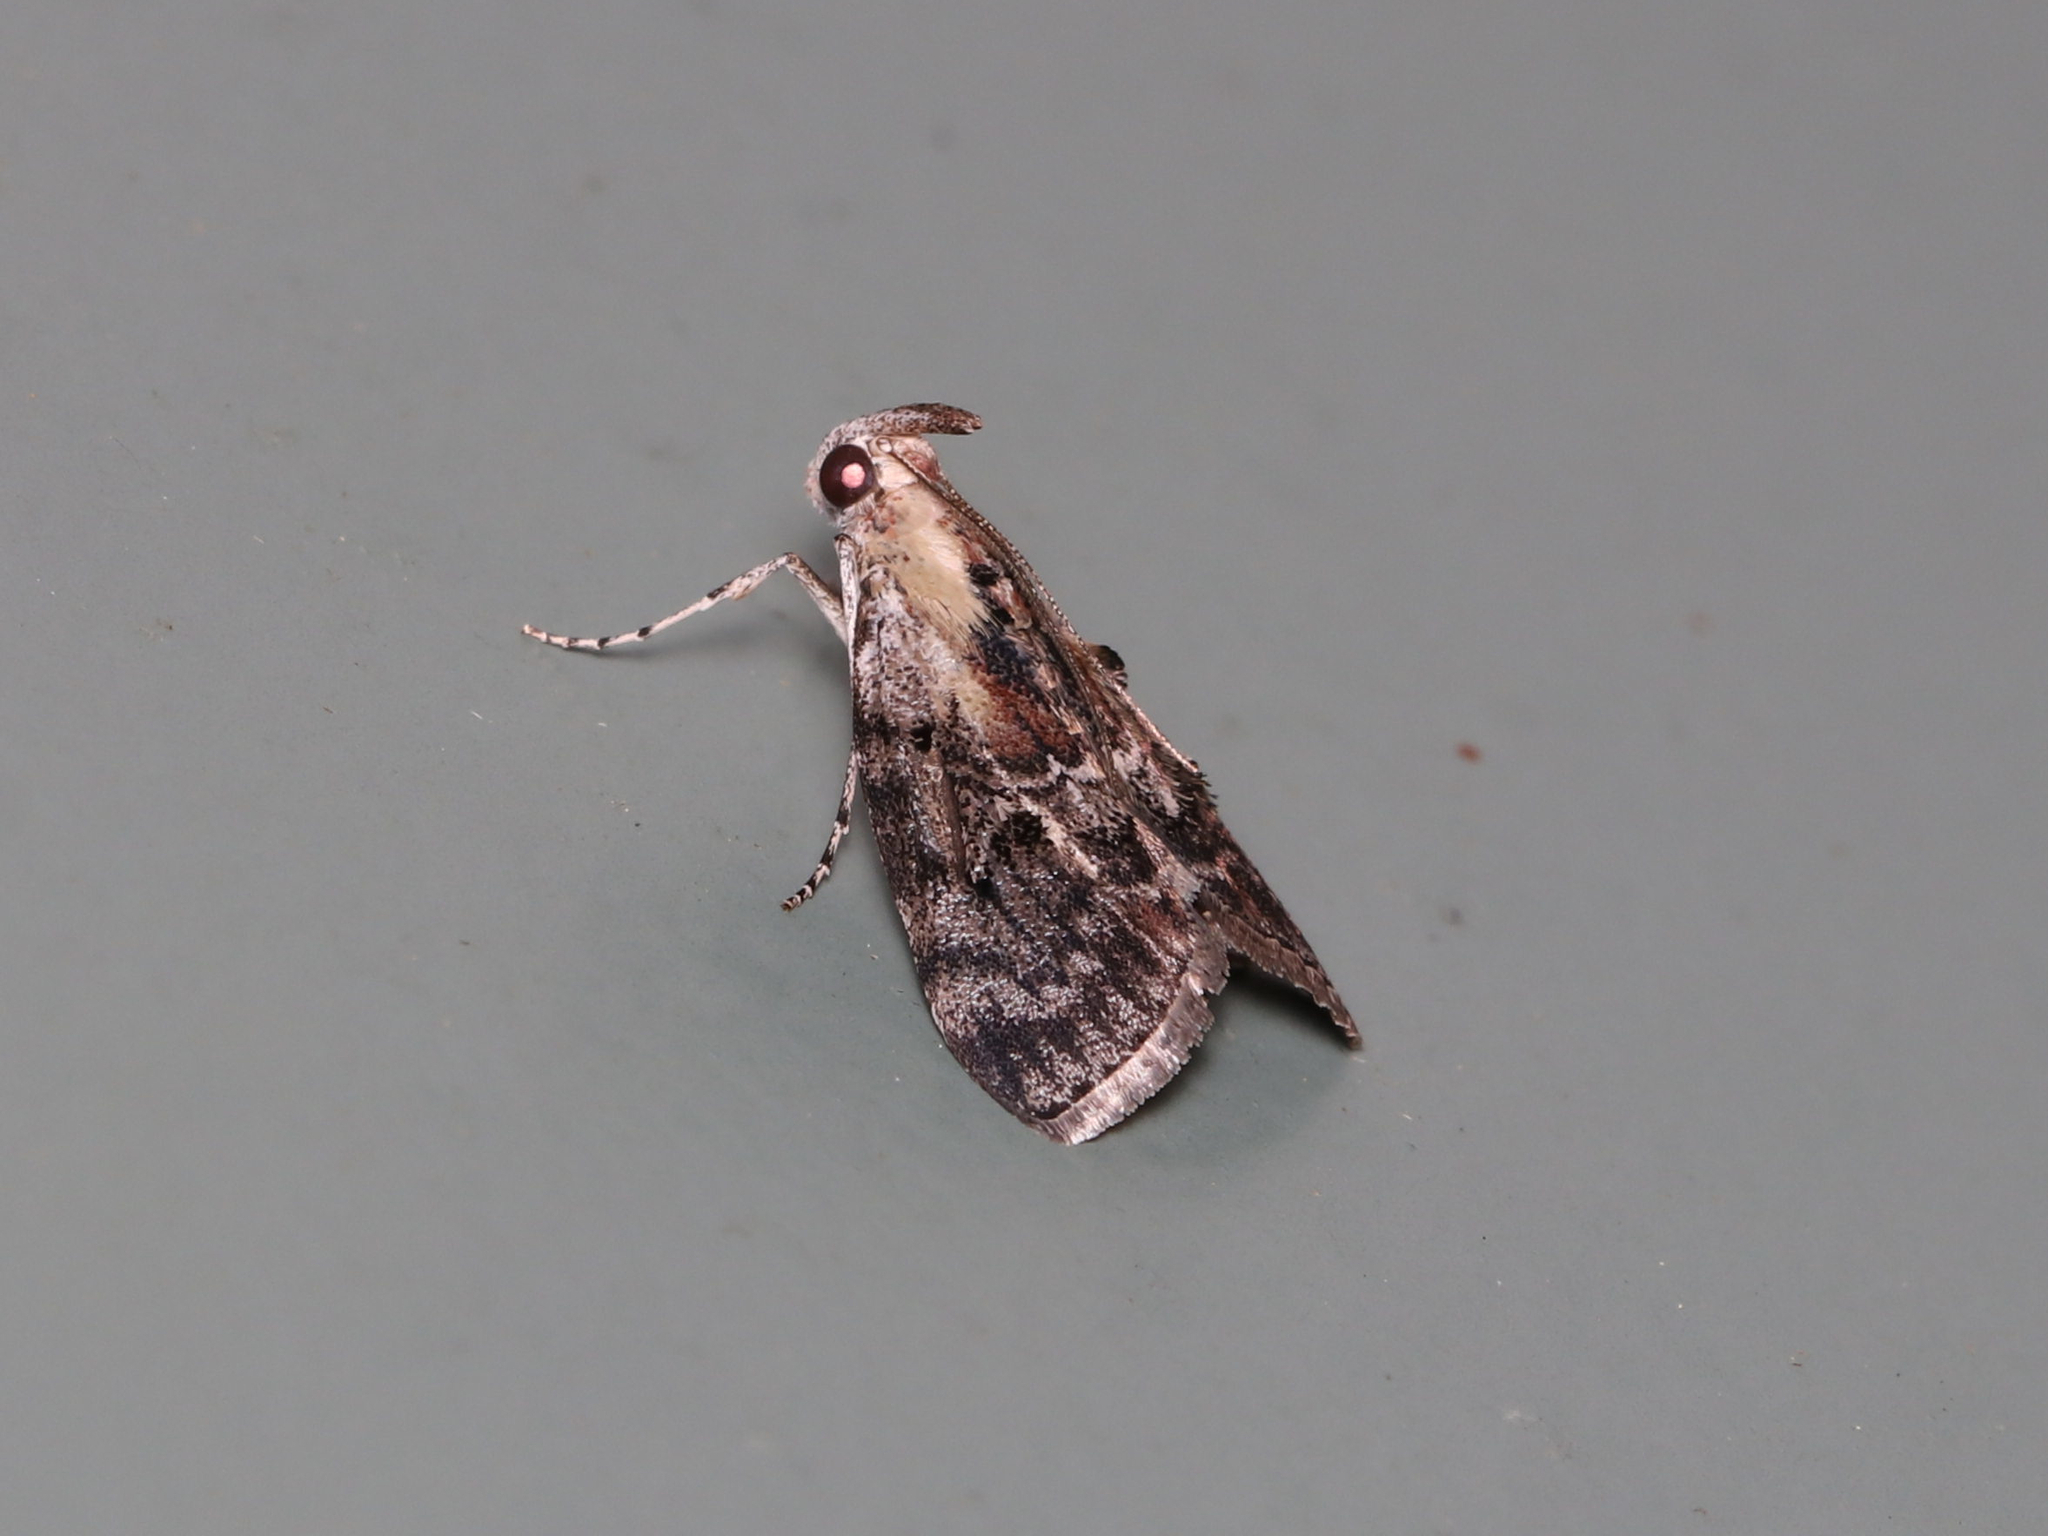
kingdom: Animalia
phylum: Arthropoda
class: Insecta
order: Lepidoptera
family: Pyralidae
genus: Pococera
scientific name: Pococera expandens
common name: Striped oak webworm moth
